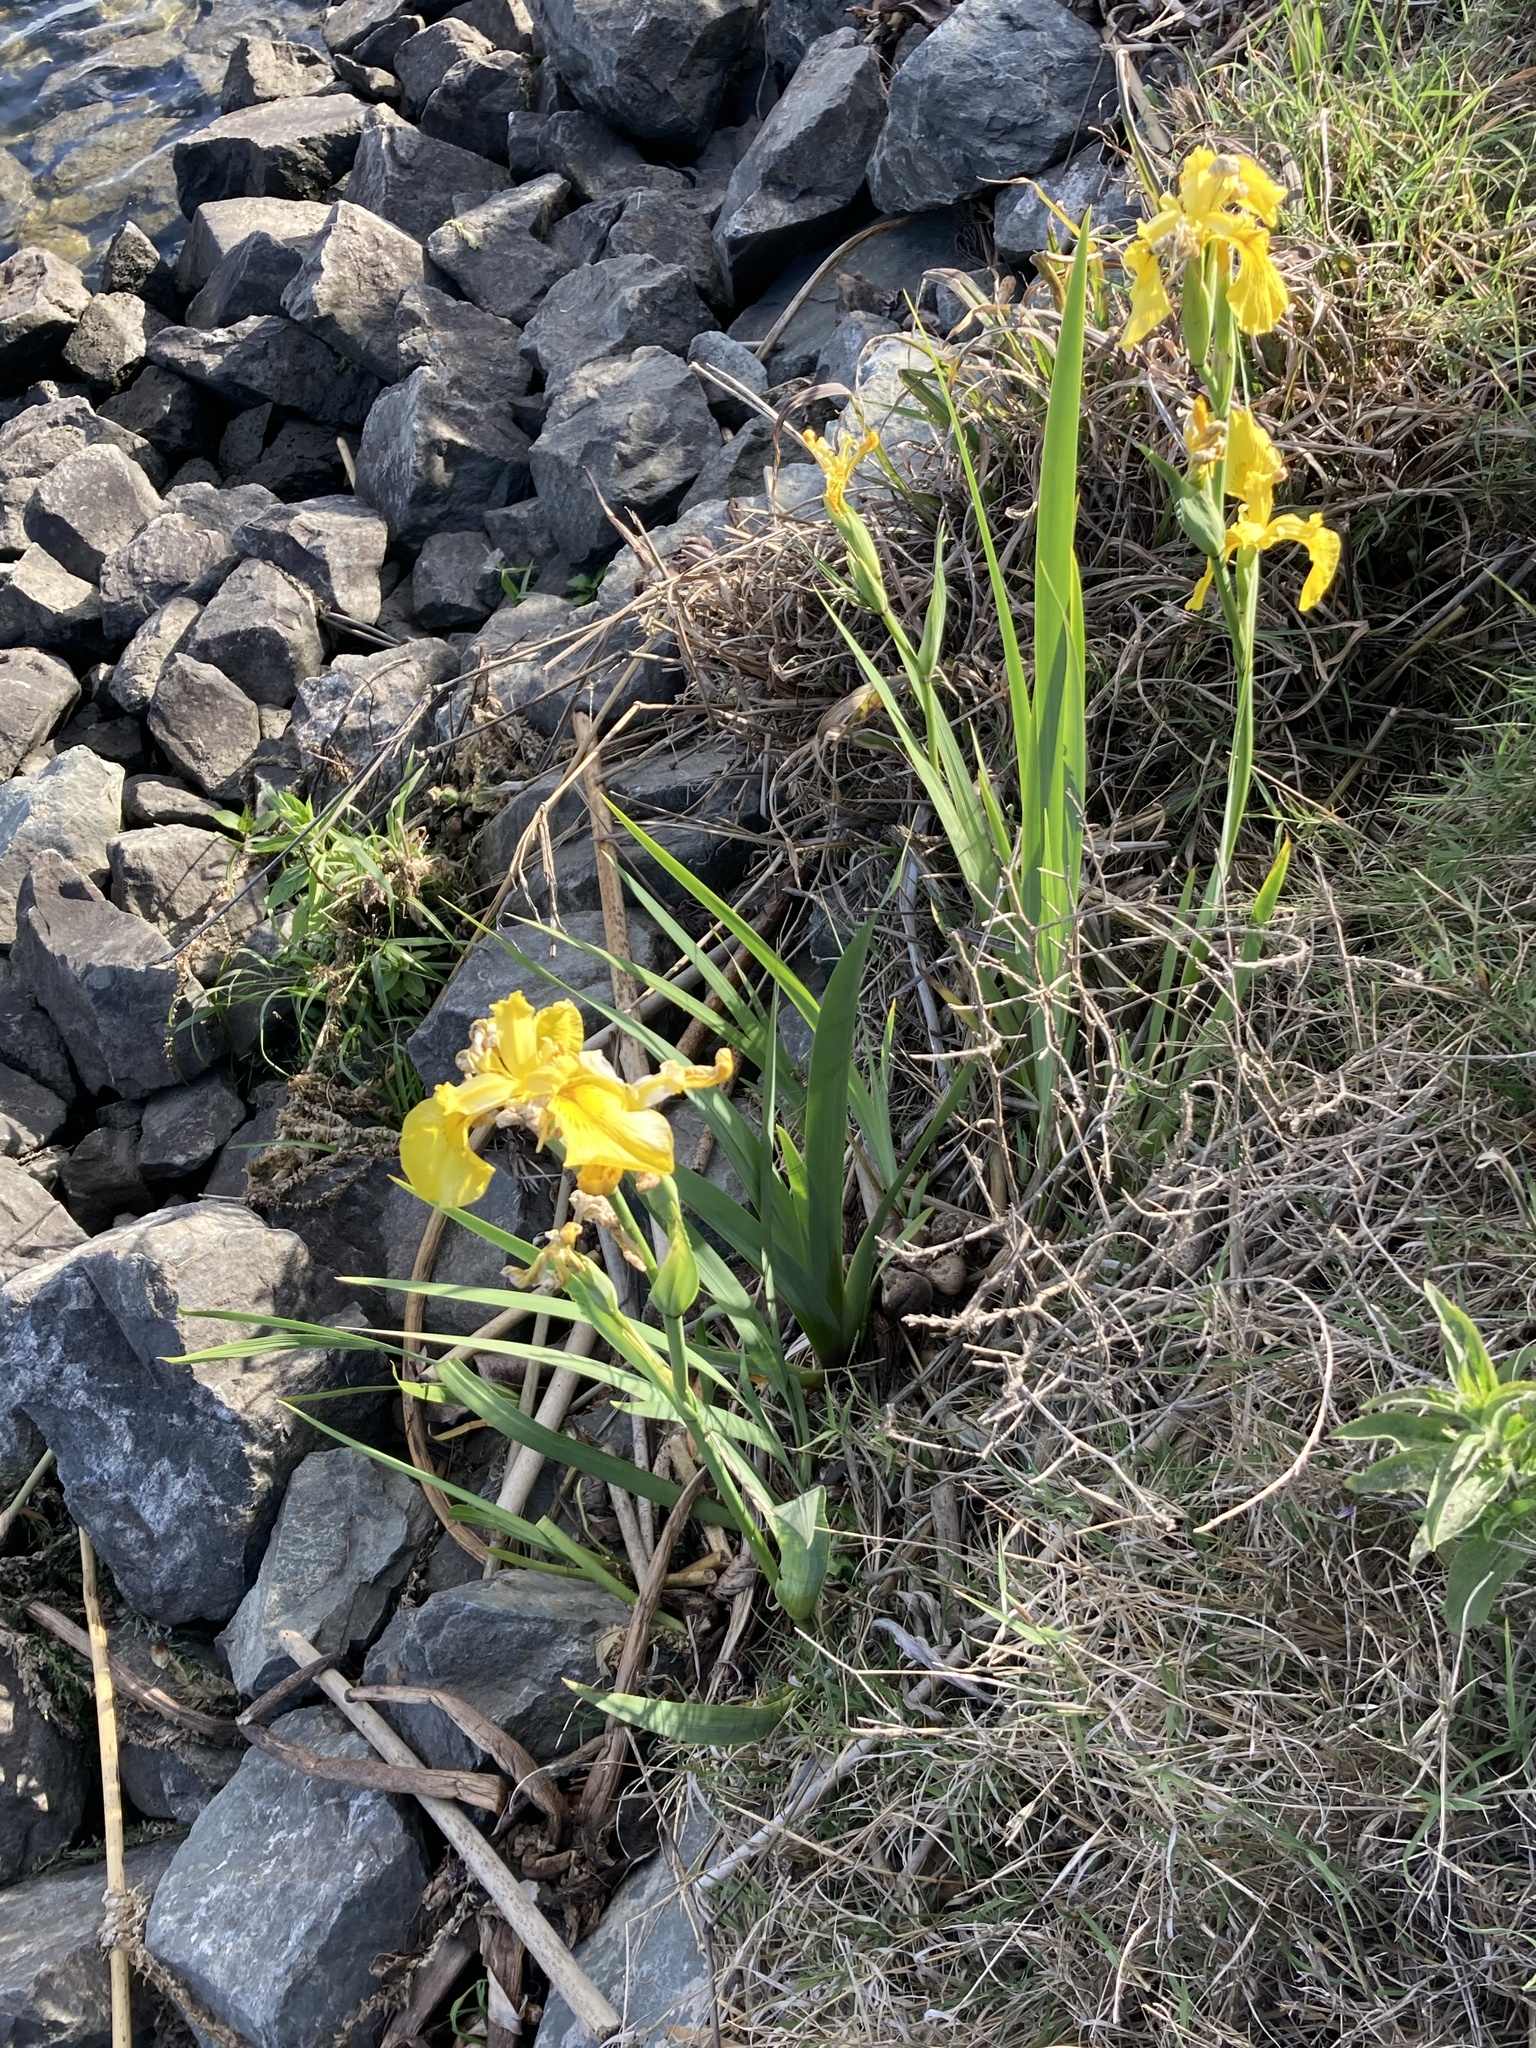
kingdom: Plantae
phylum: Tracheophyta
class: Liliopsida
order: Asparagales
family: Iridaceae
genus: Iris
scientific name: Iris pseudacorus
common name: Yellow flag
